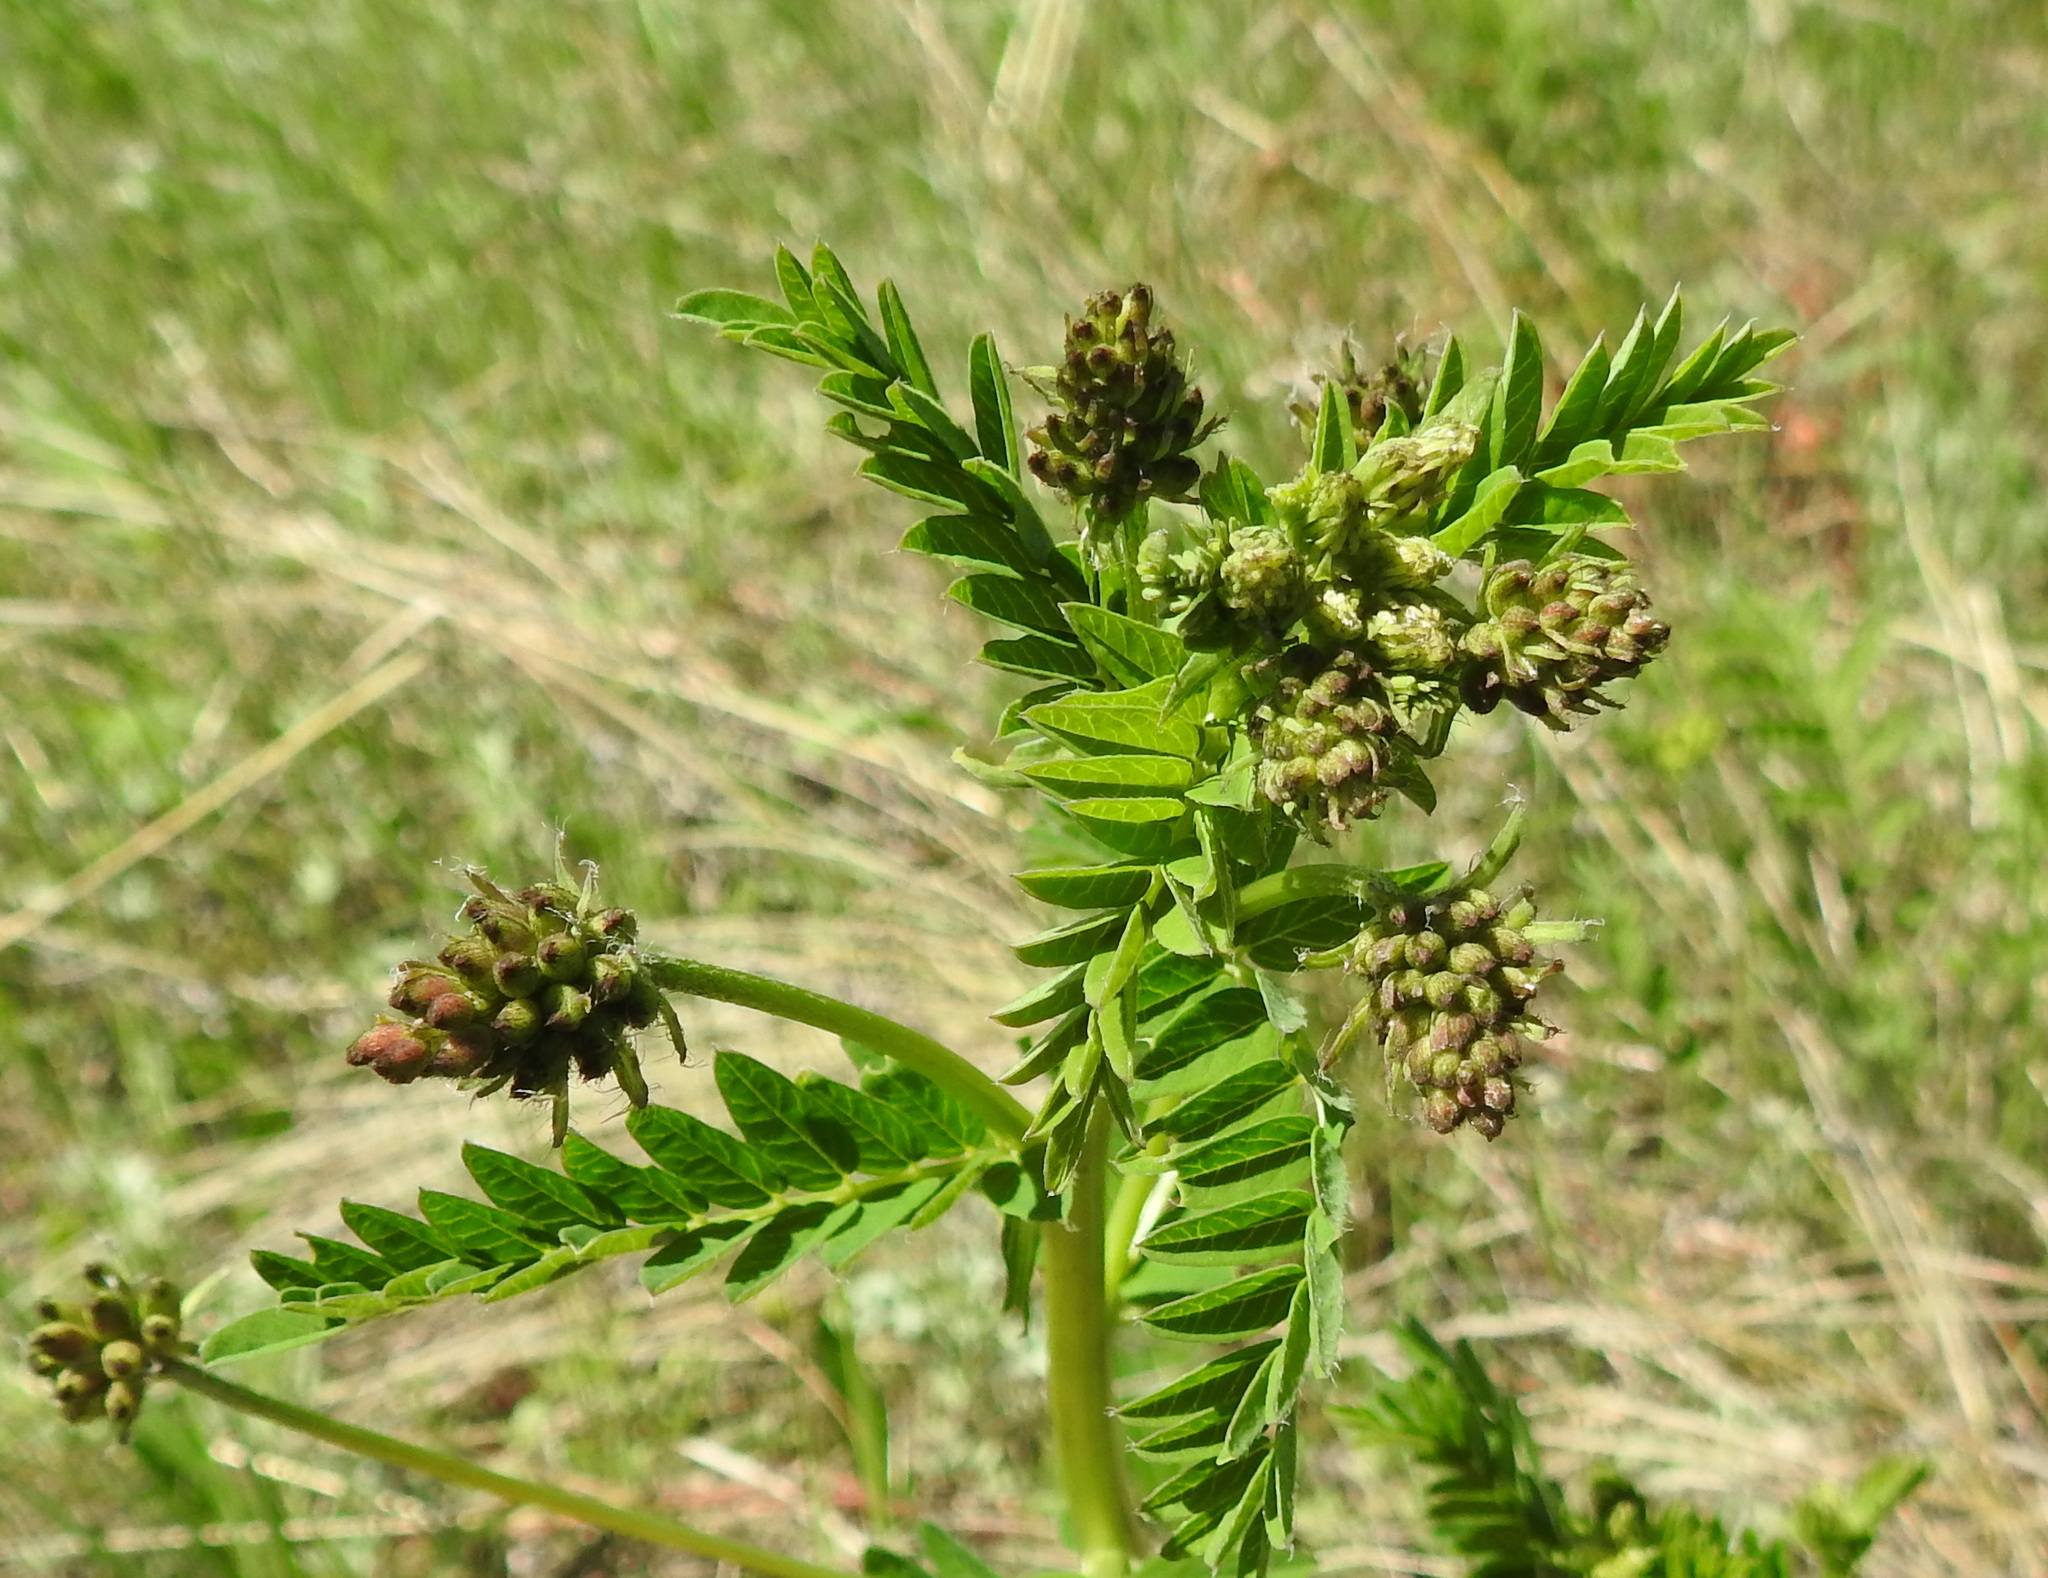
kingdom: Plantae
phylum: Tracheophyta
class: Magnoliopsida
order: Fabales
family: Fabaceae
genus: Astragalus
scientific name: Astragalus uliginosus
